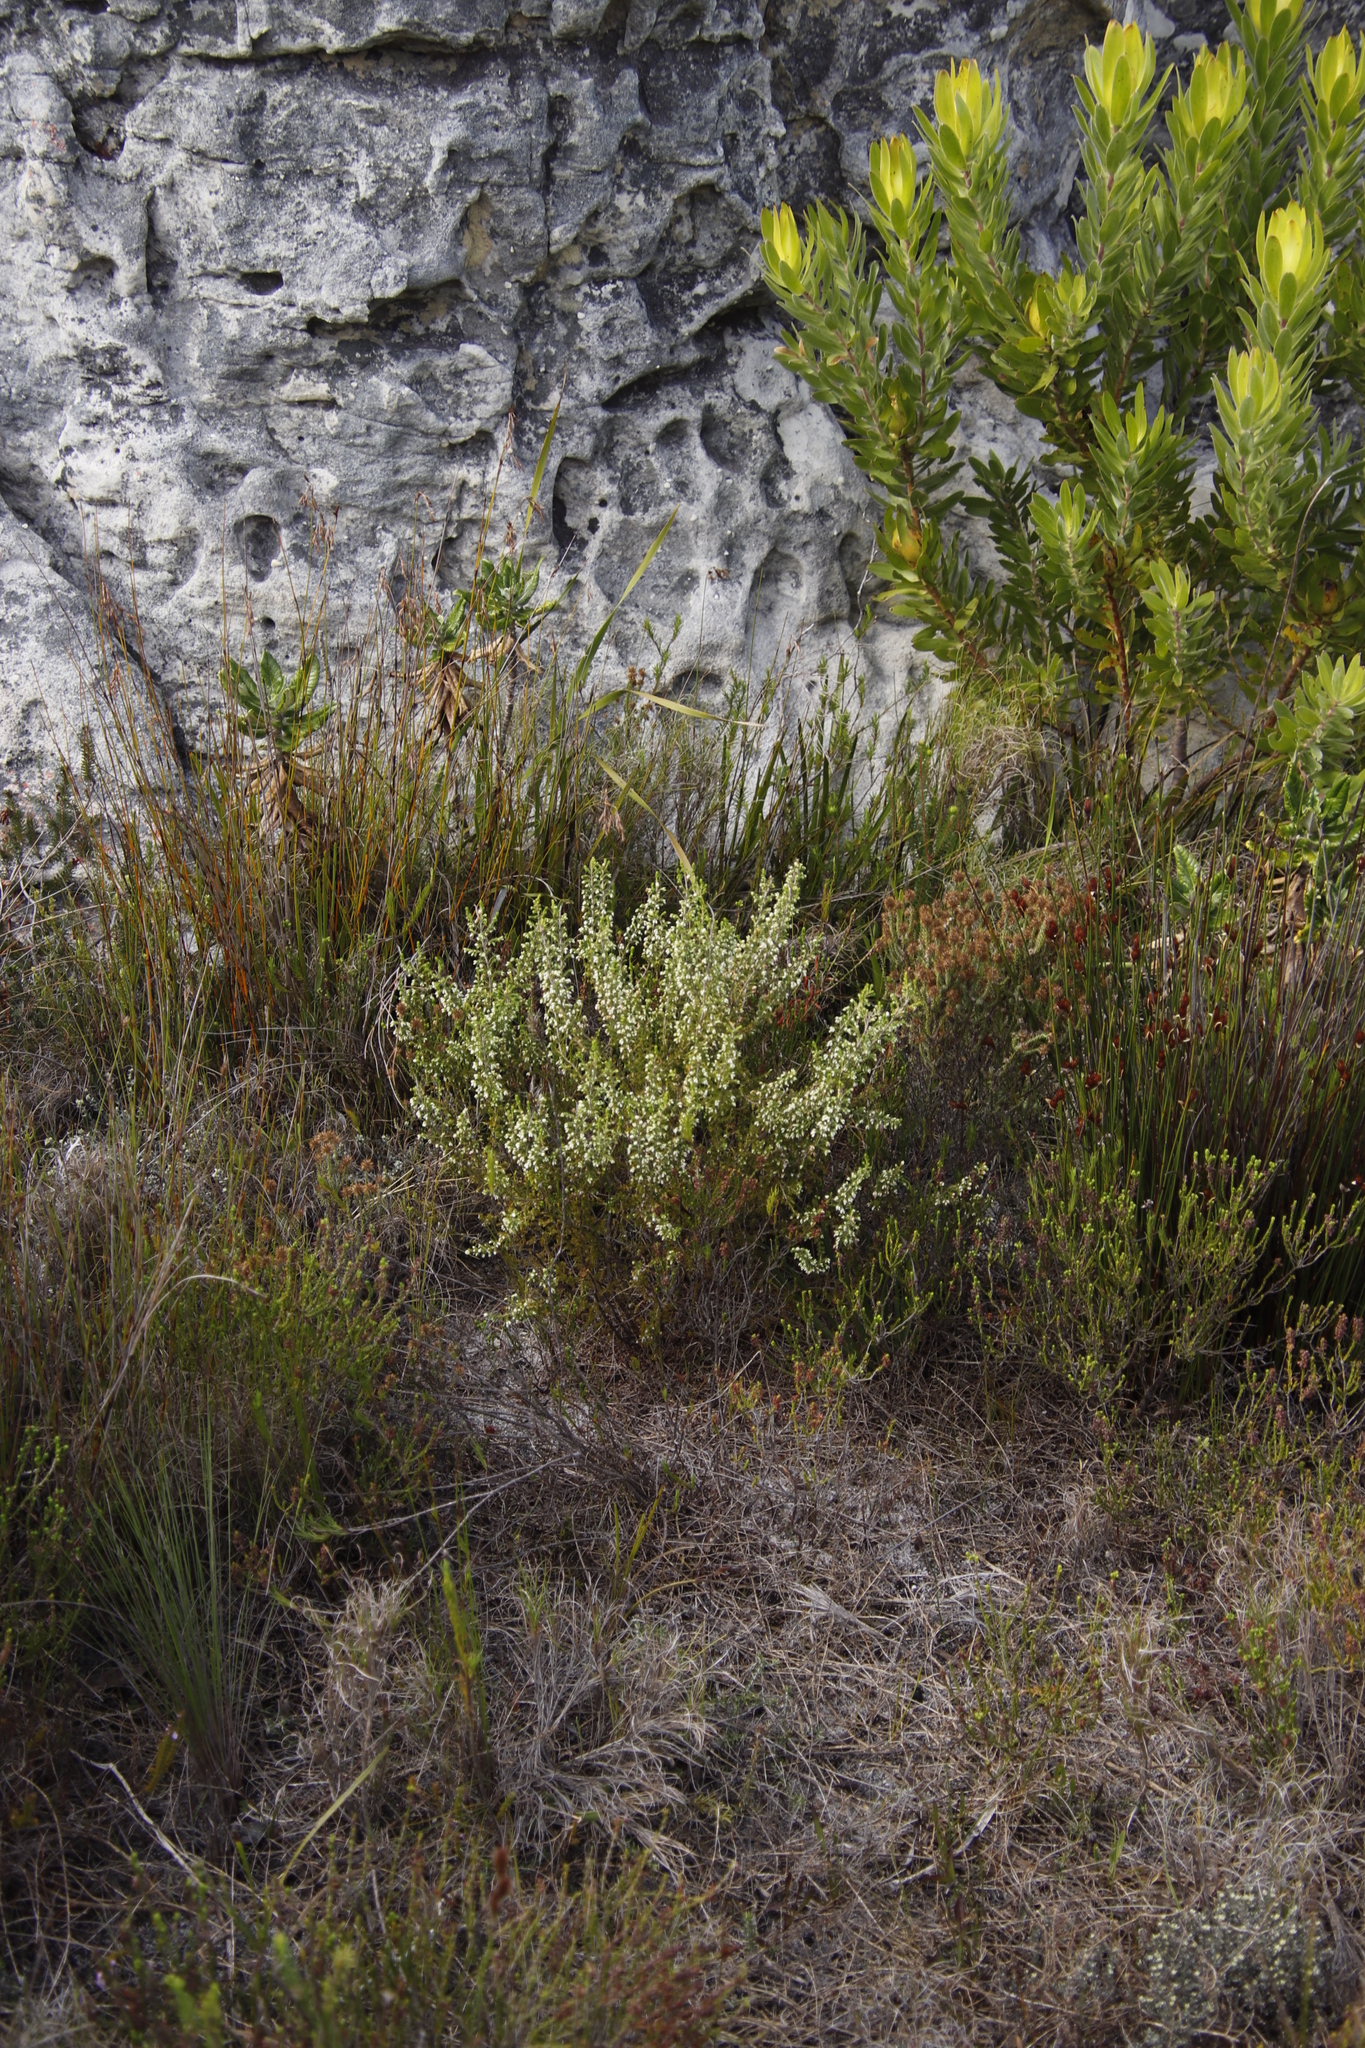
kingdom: Plantae
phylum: Tracheophyta
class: Magnoliopsida
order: Ericales
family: Ericaceae
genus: Erica
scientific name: Erica imbricata
